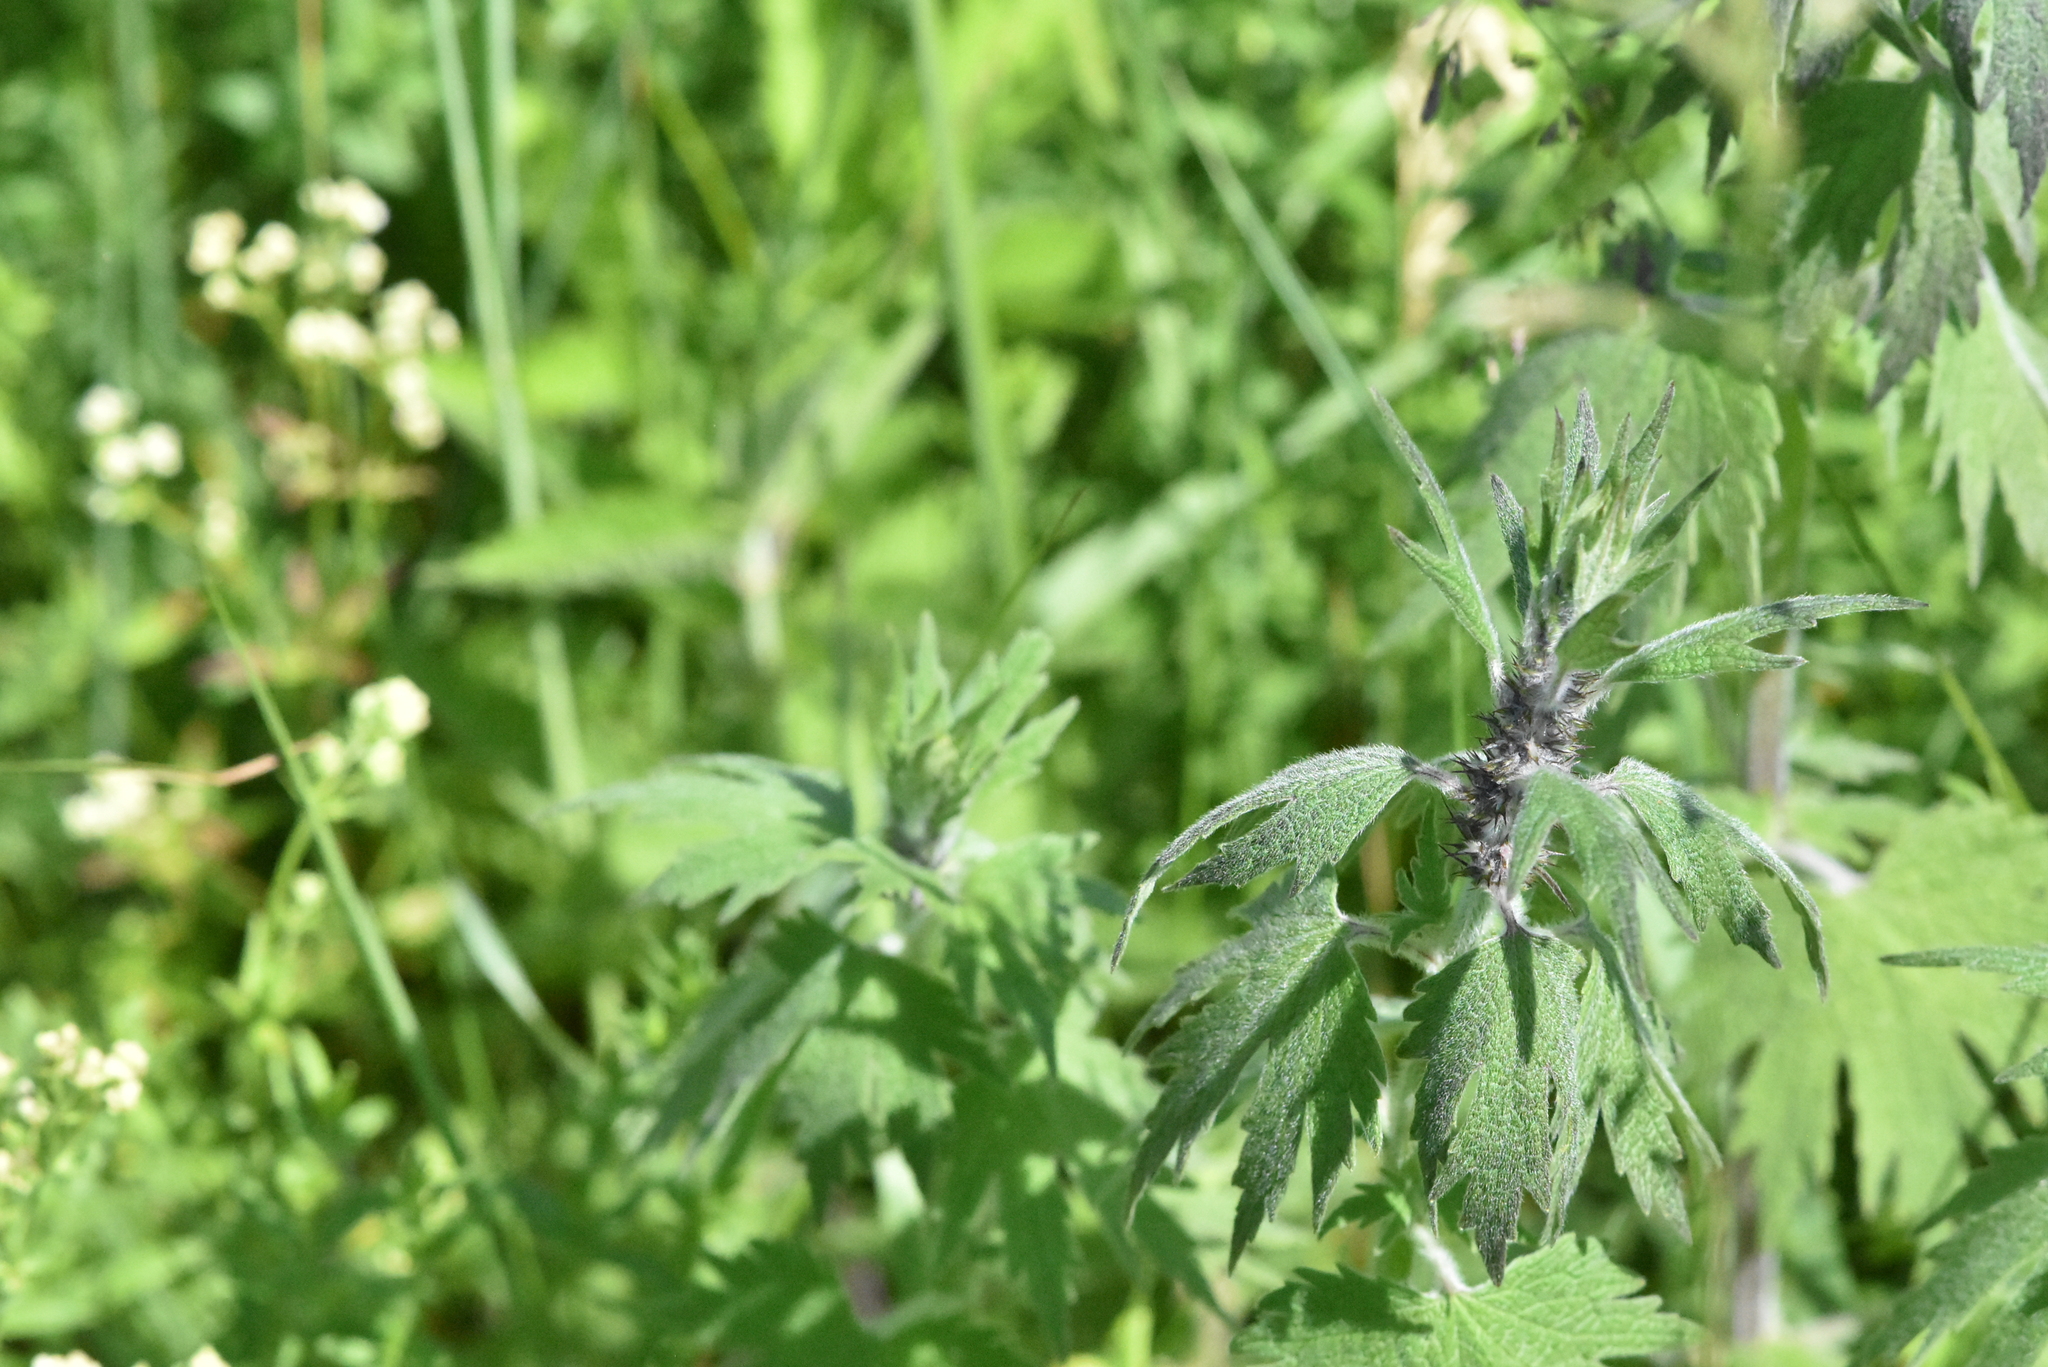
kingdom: Plantae
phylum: Tracheophyta
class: Magnoliopsida
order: Lamiales
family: Lamiaceae
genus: Leonurus
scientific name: Leonurus quinquelobatus
